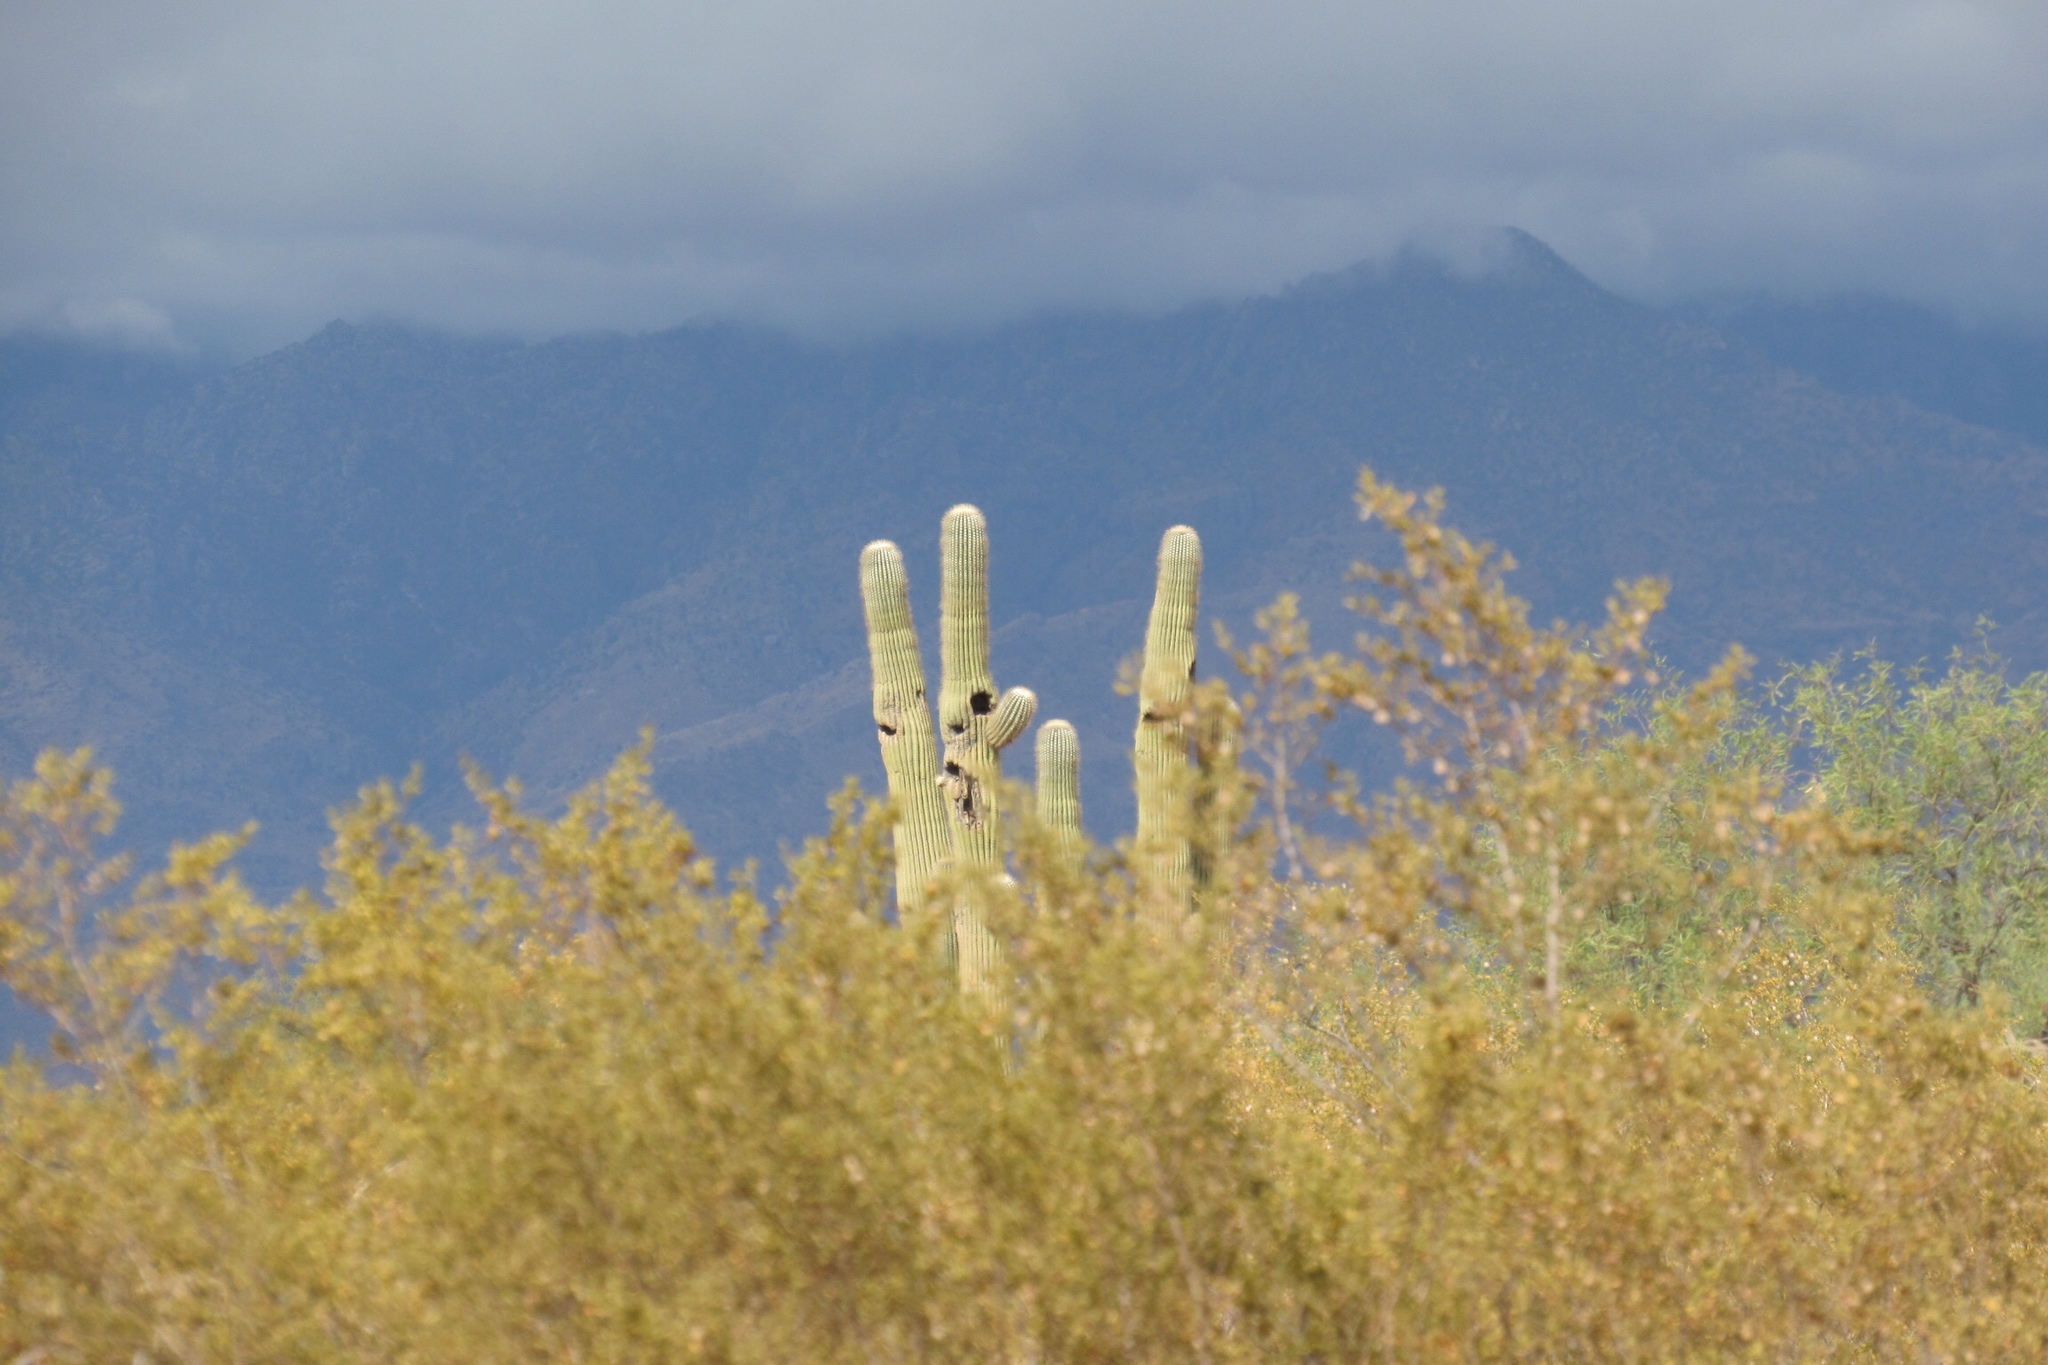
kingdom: Plantae
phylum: Tracheophyta
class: Magnoliopsida
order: Caryophyllales
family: Cactaceae
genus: Carnegiea
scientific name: Carnegiea gigantea
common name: Saguaro
